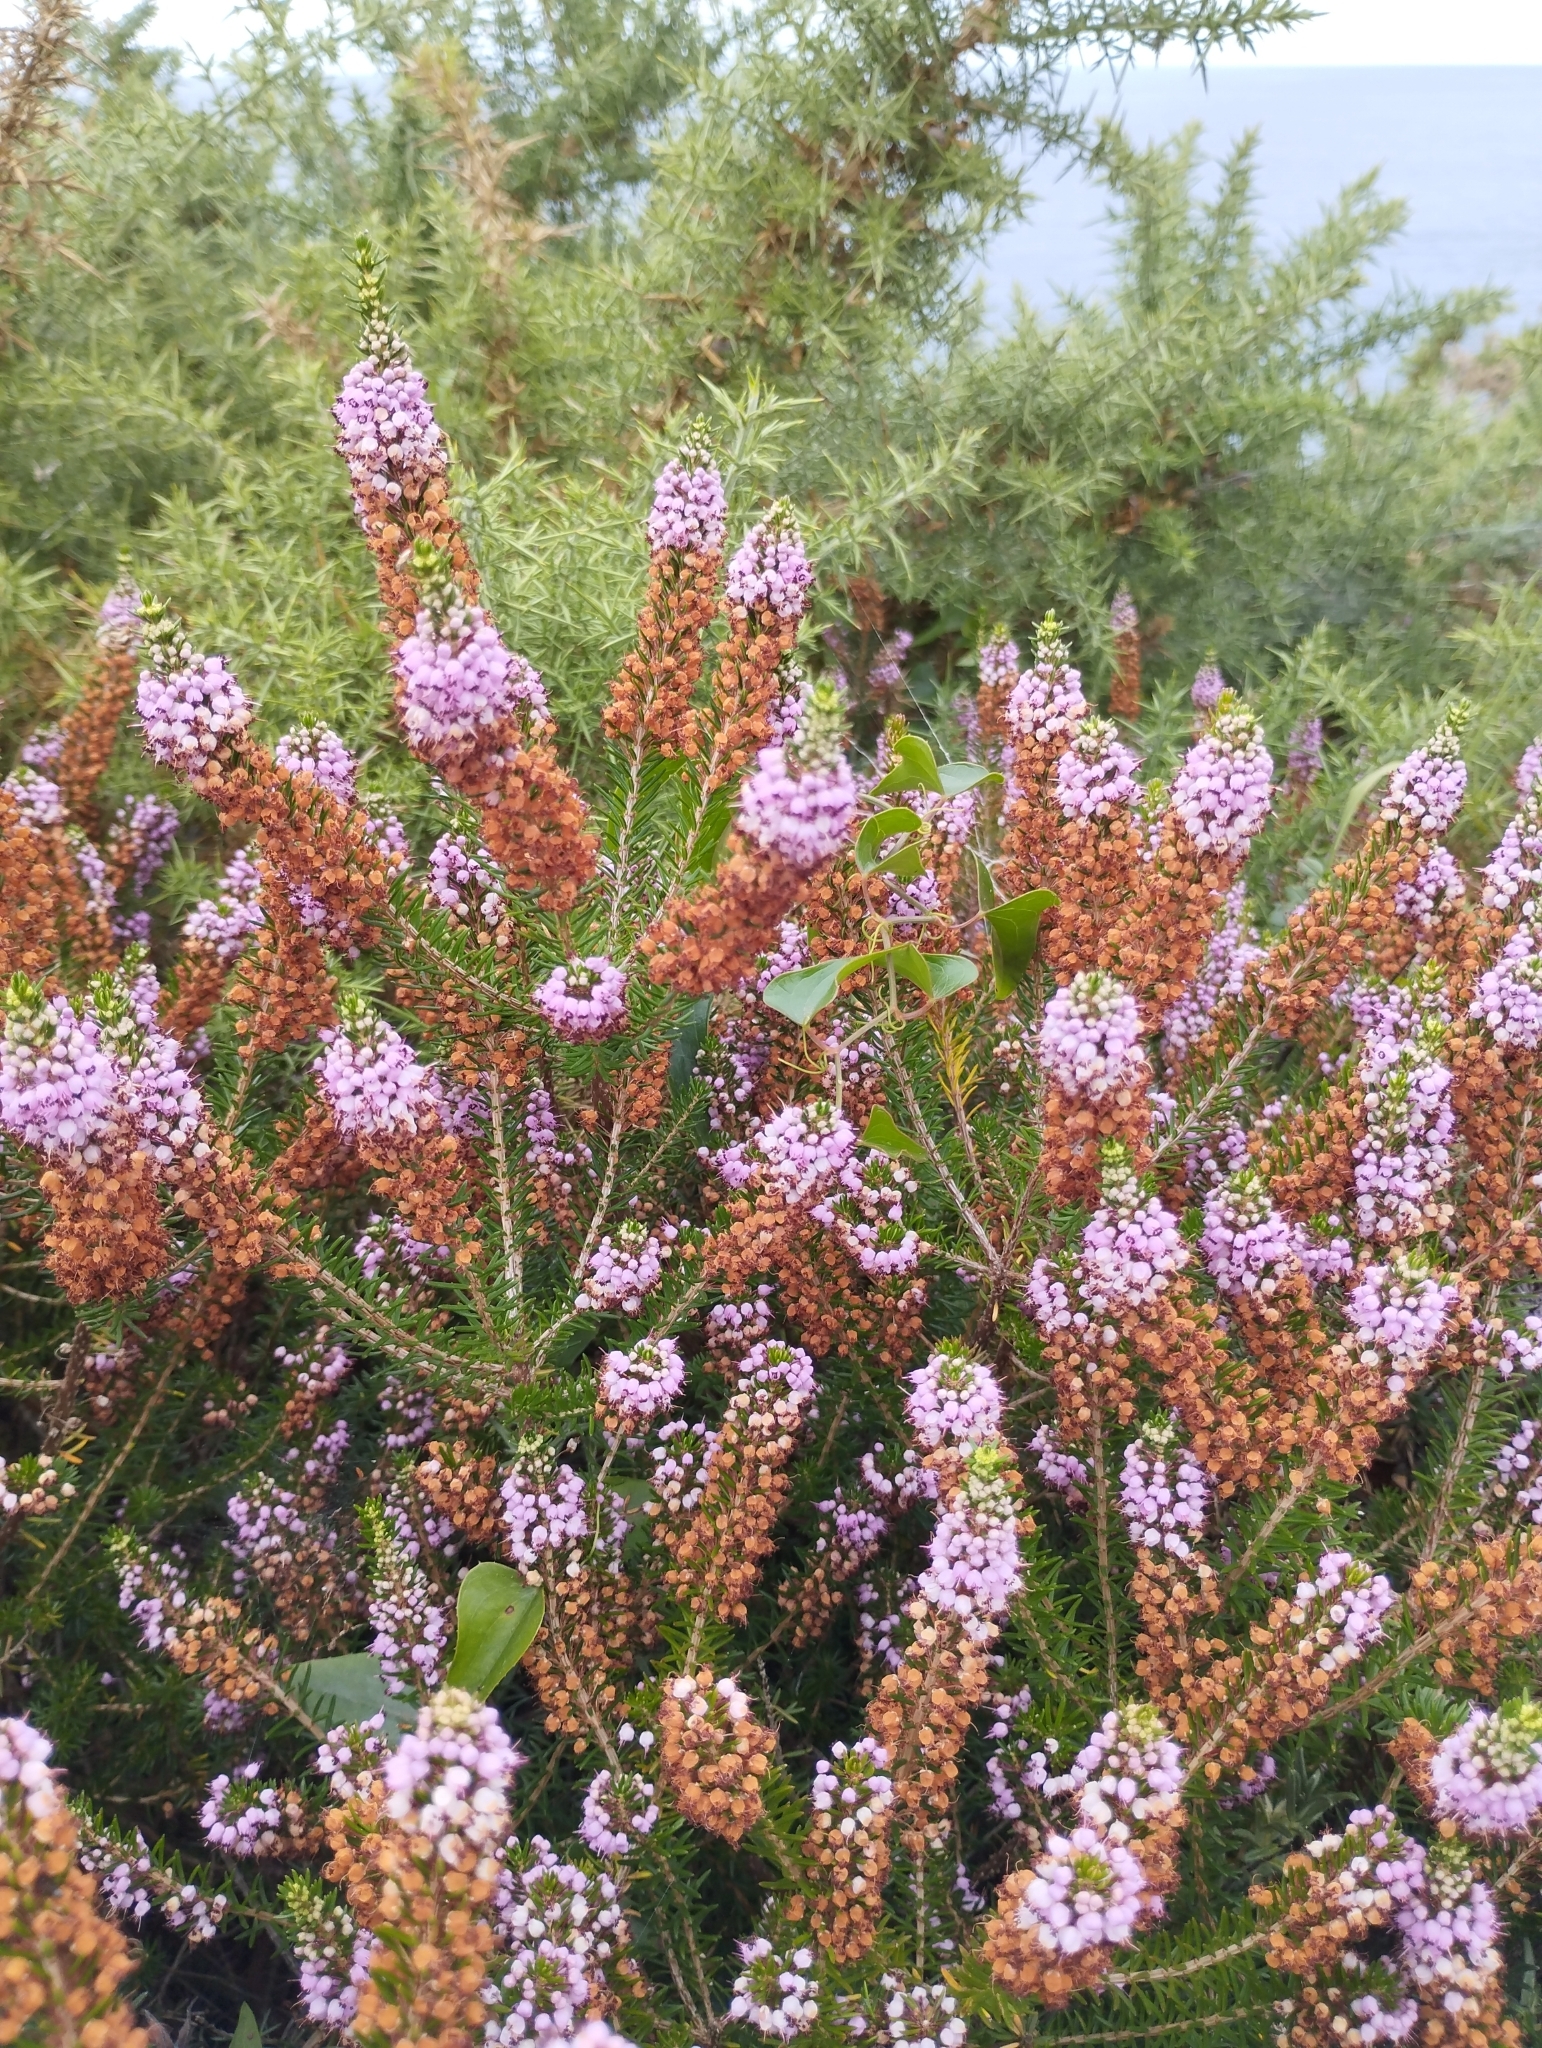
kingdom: Plantae
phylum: Tracheophyta
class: Magnoliopsida
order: Ericales
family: Ericaceae
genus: Erica
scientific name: Erica vagans
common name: Cornish heath
